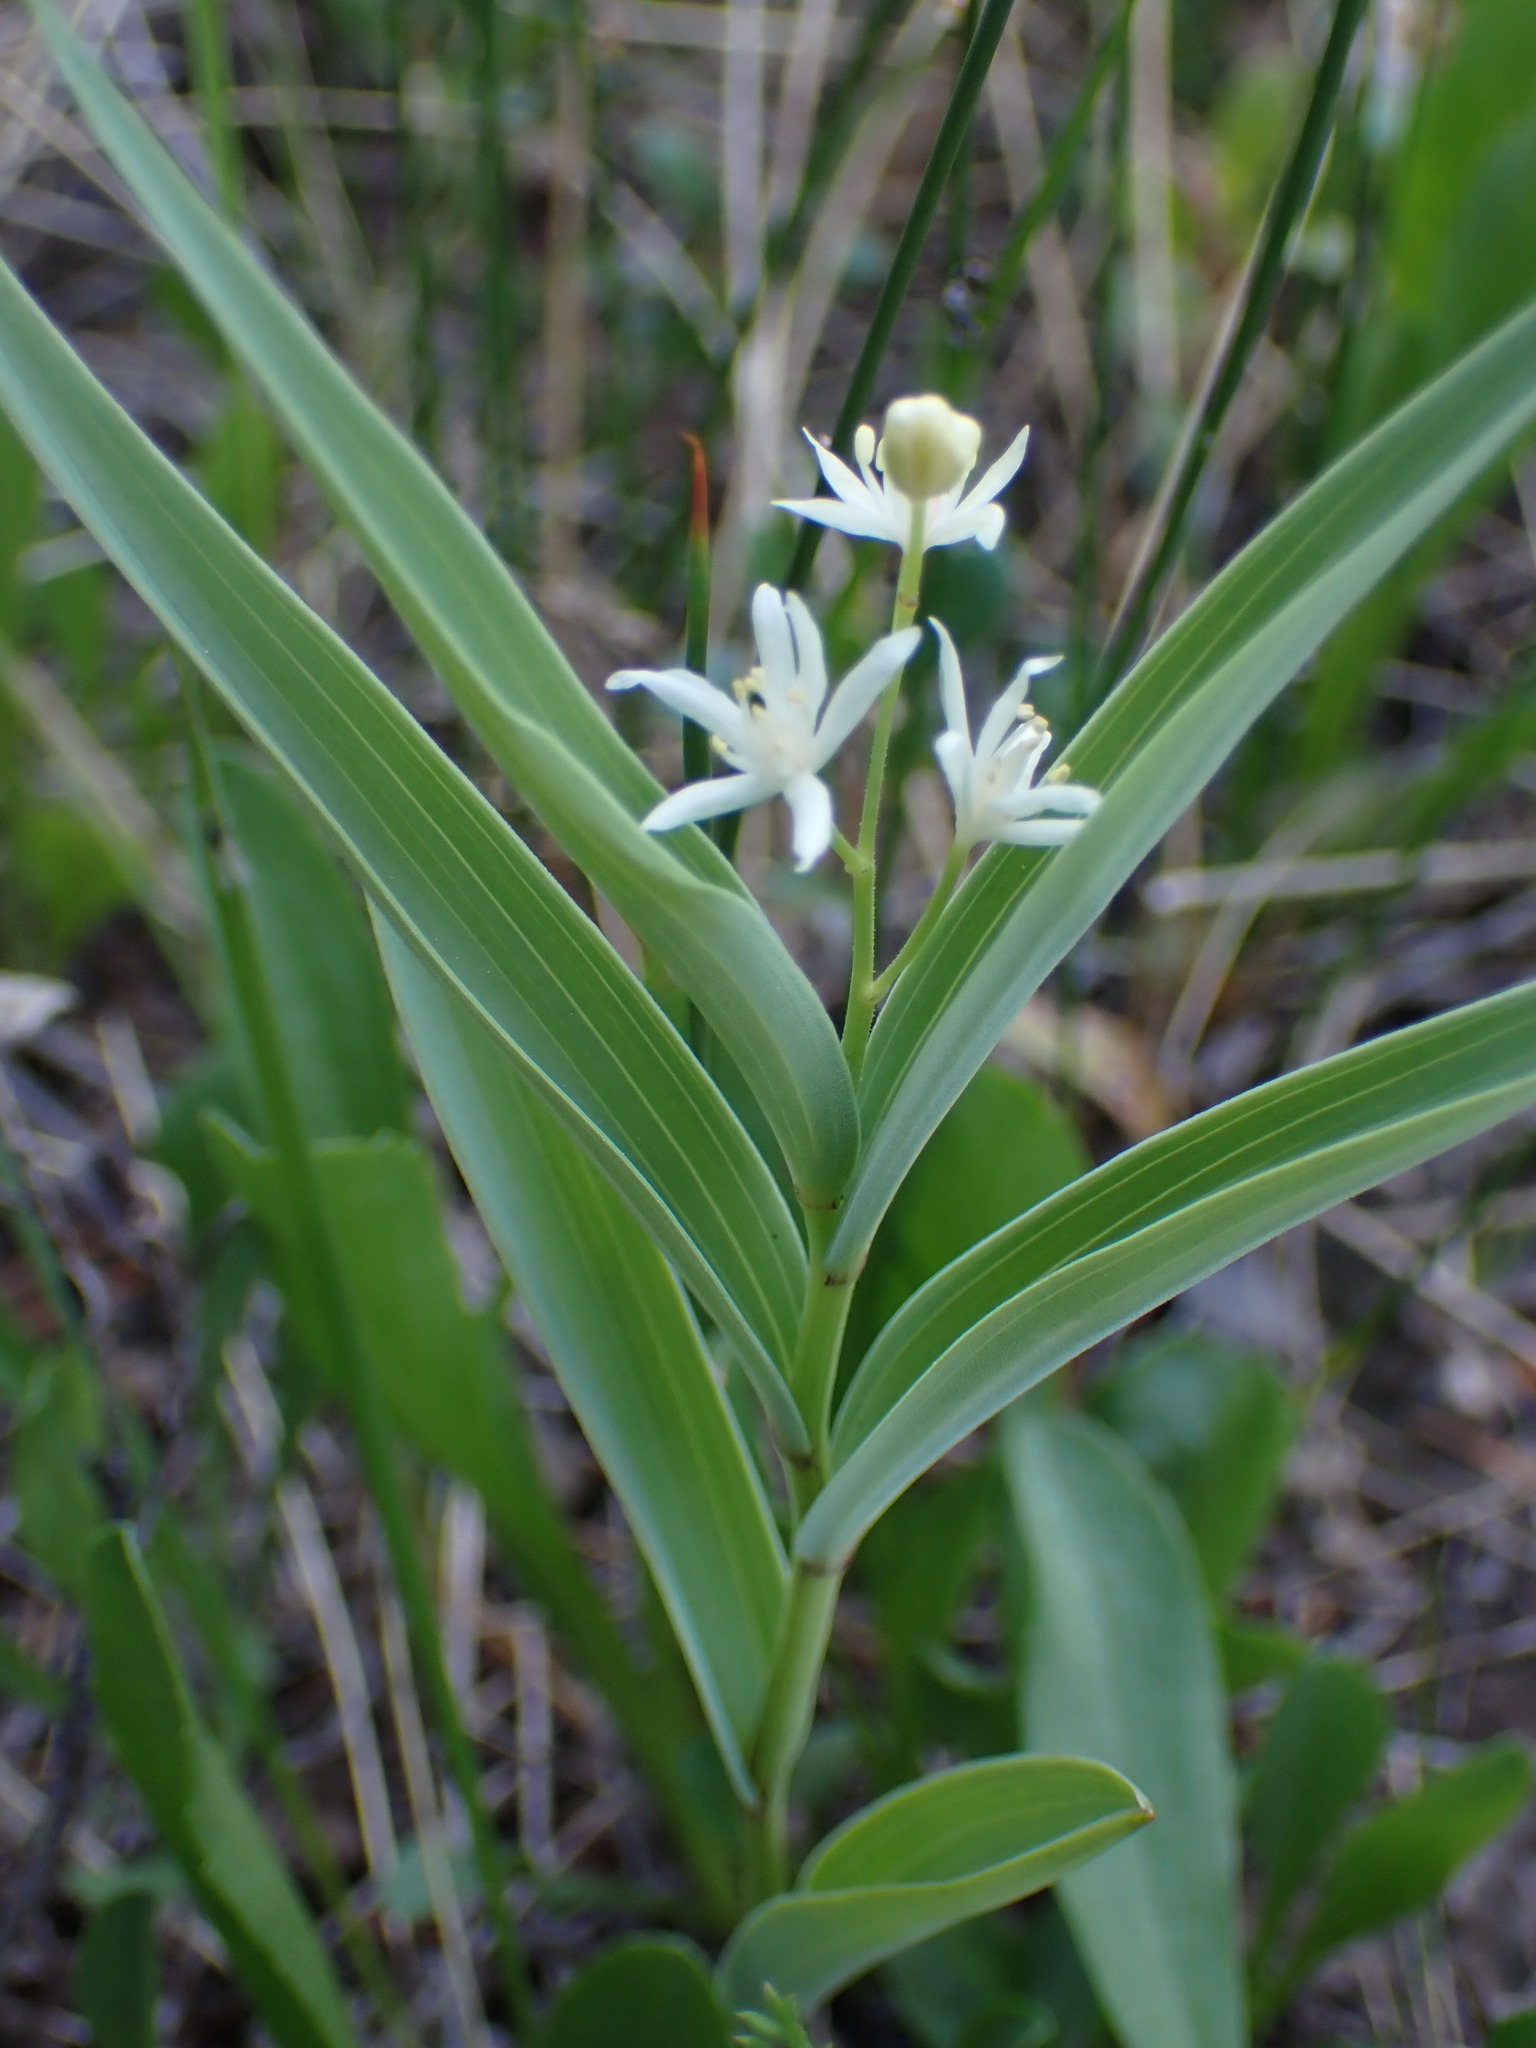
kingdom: Plantae
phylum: Tracheophyta
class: Liliopsida
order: Asparagales
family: Asparagaceae
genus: Maianthemum
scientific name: Maianthemum stellatum
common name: Little false solomon's seal
